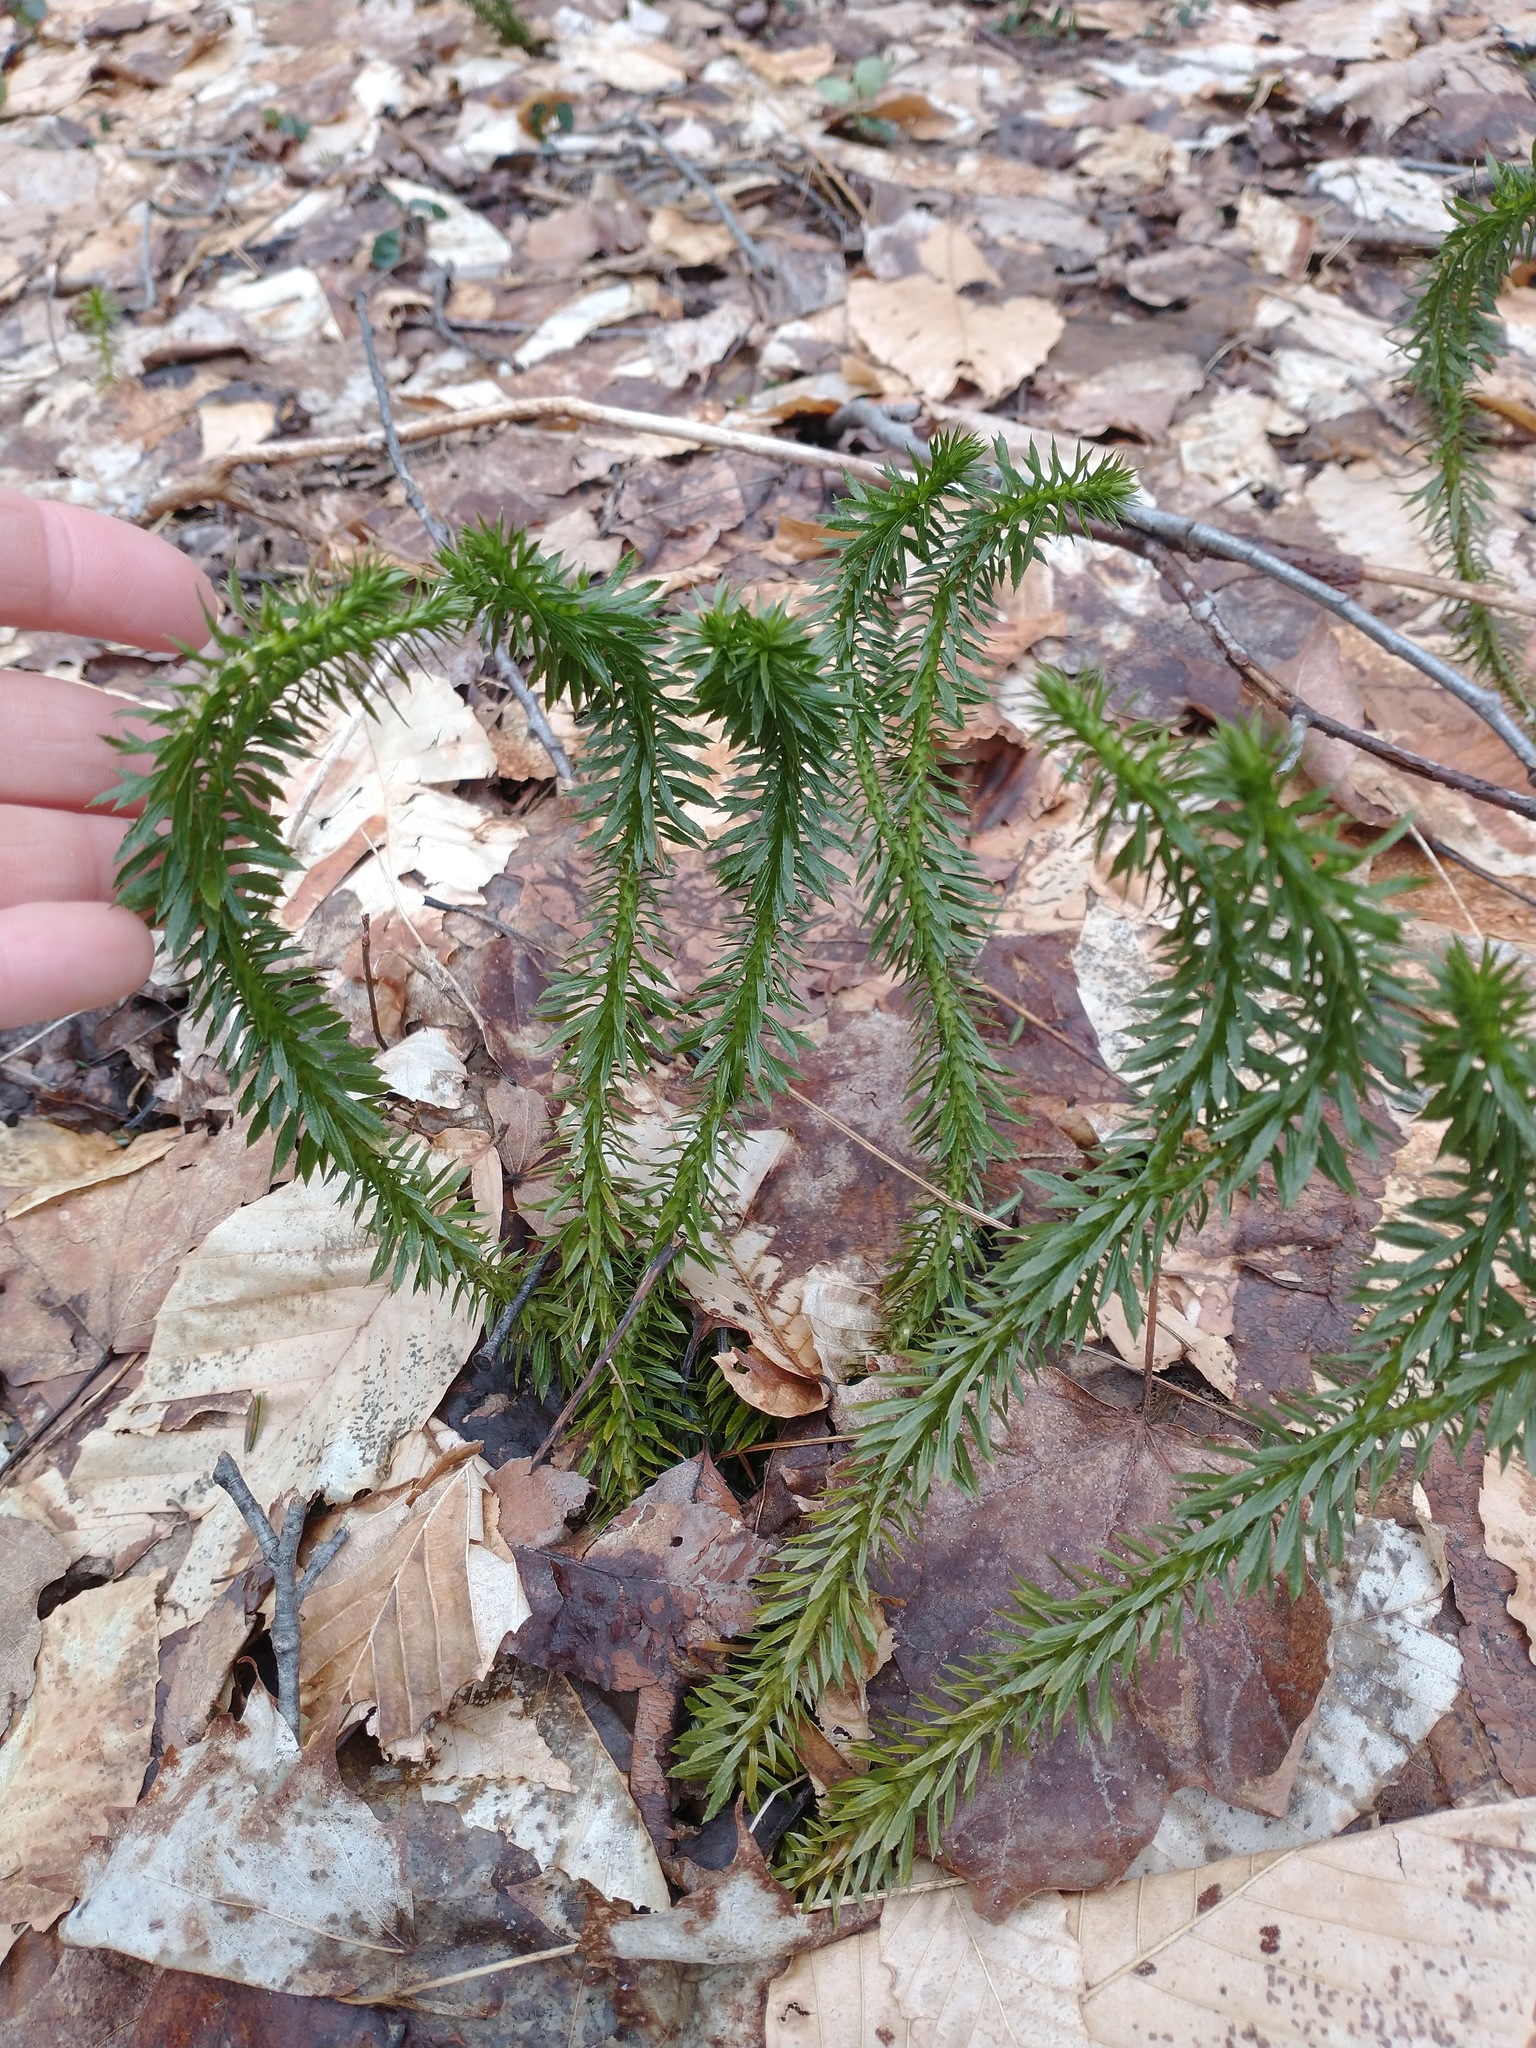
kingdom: Plantae
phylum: Tracheophyta
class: Lycopodiopsida
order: Lycopodiales
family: Lycopodiaceae
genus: Huperzia
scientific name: Huperzia lucidula
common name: Shining clubmoss
